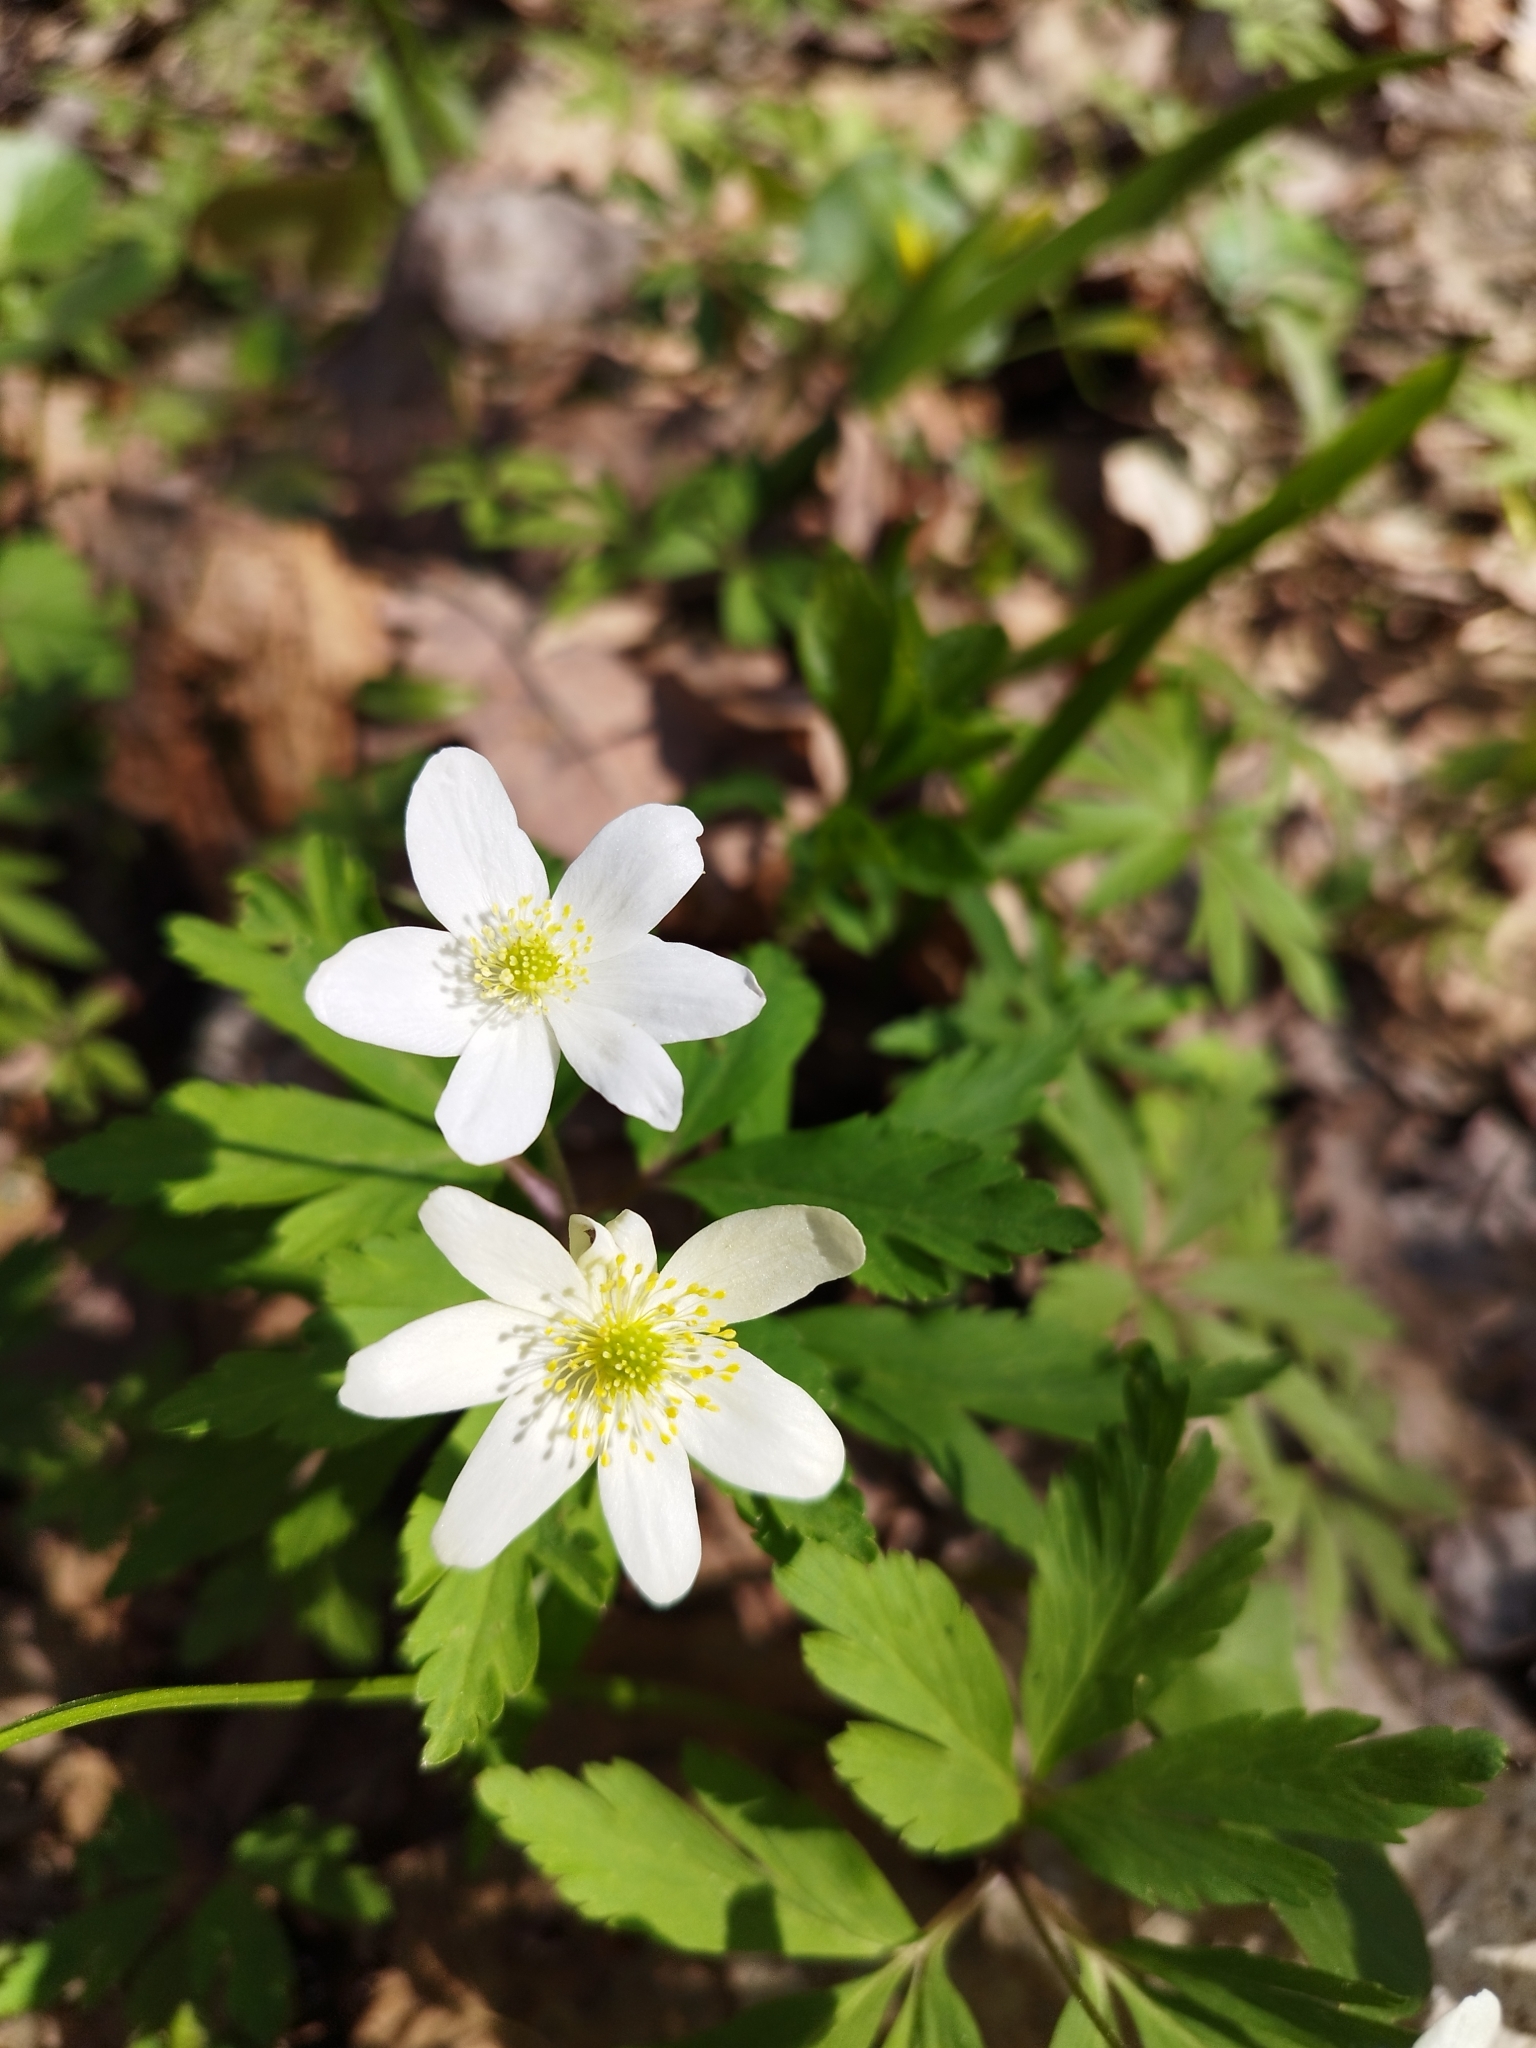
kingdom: Plantae
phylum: Tracheophyta
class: Magnoliopsida
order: Ranunculales
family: Ranunculaceae
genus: Anemone
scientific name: Anemone altaica
